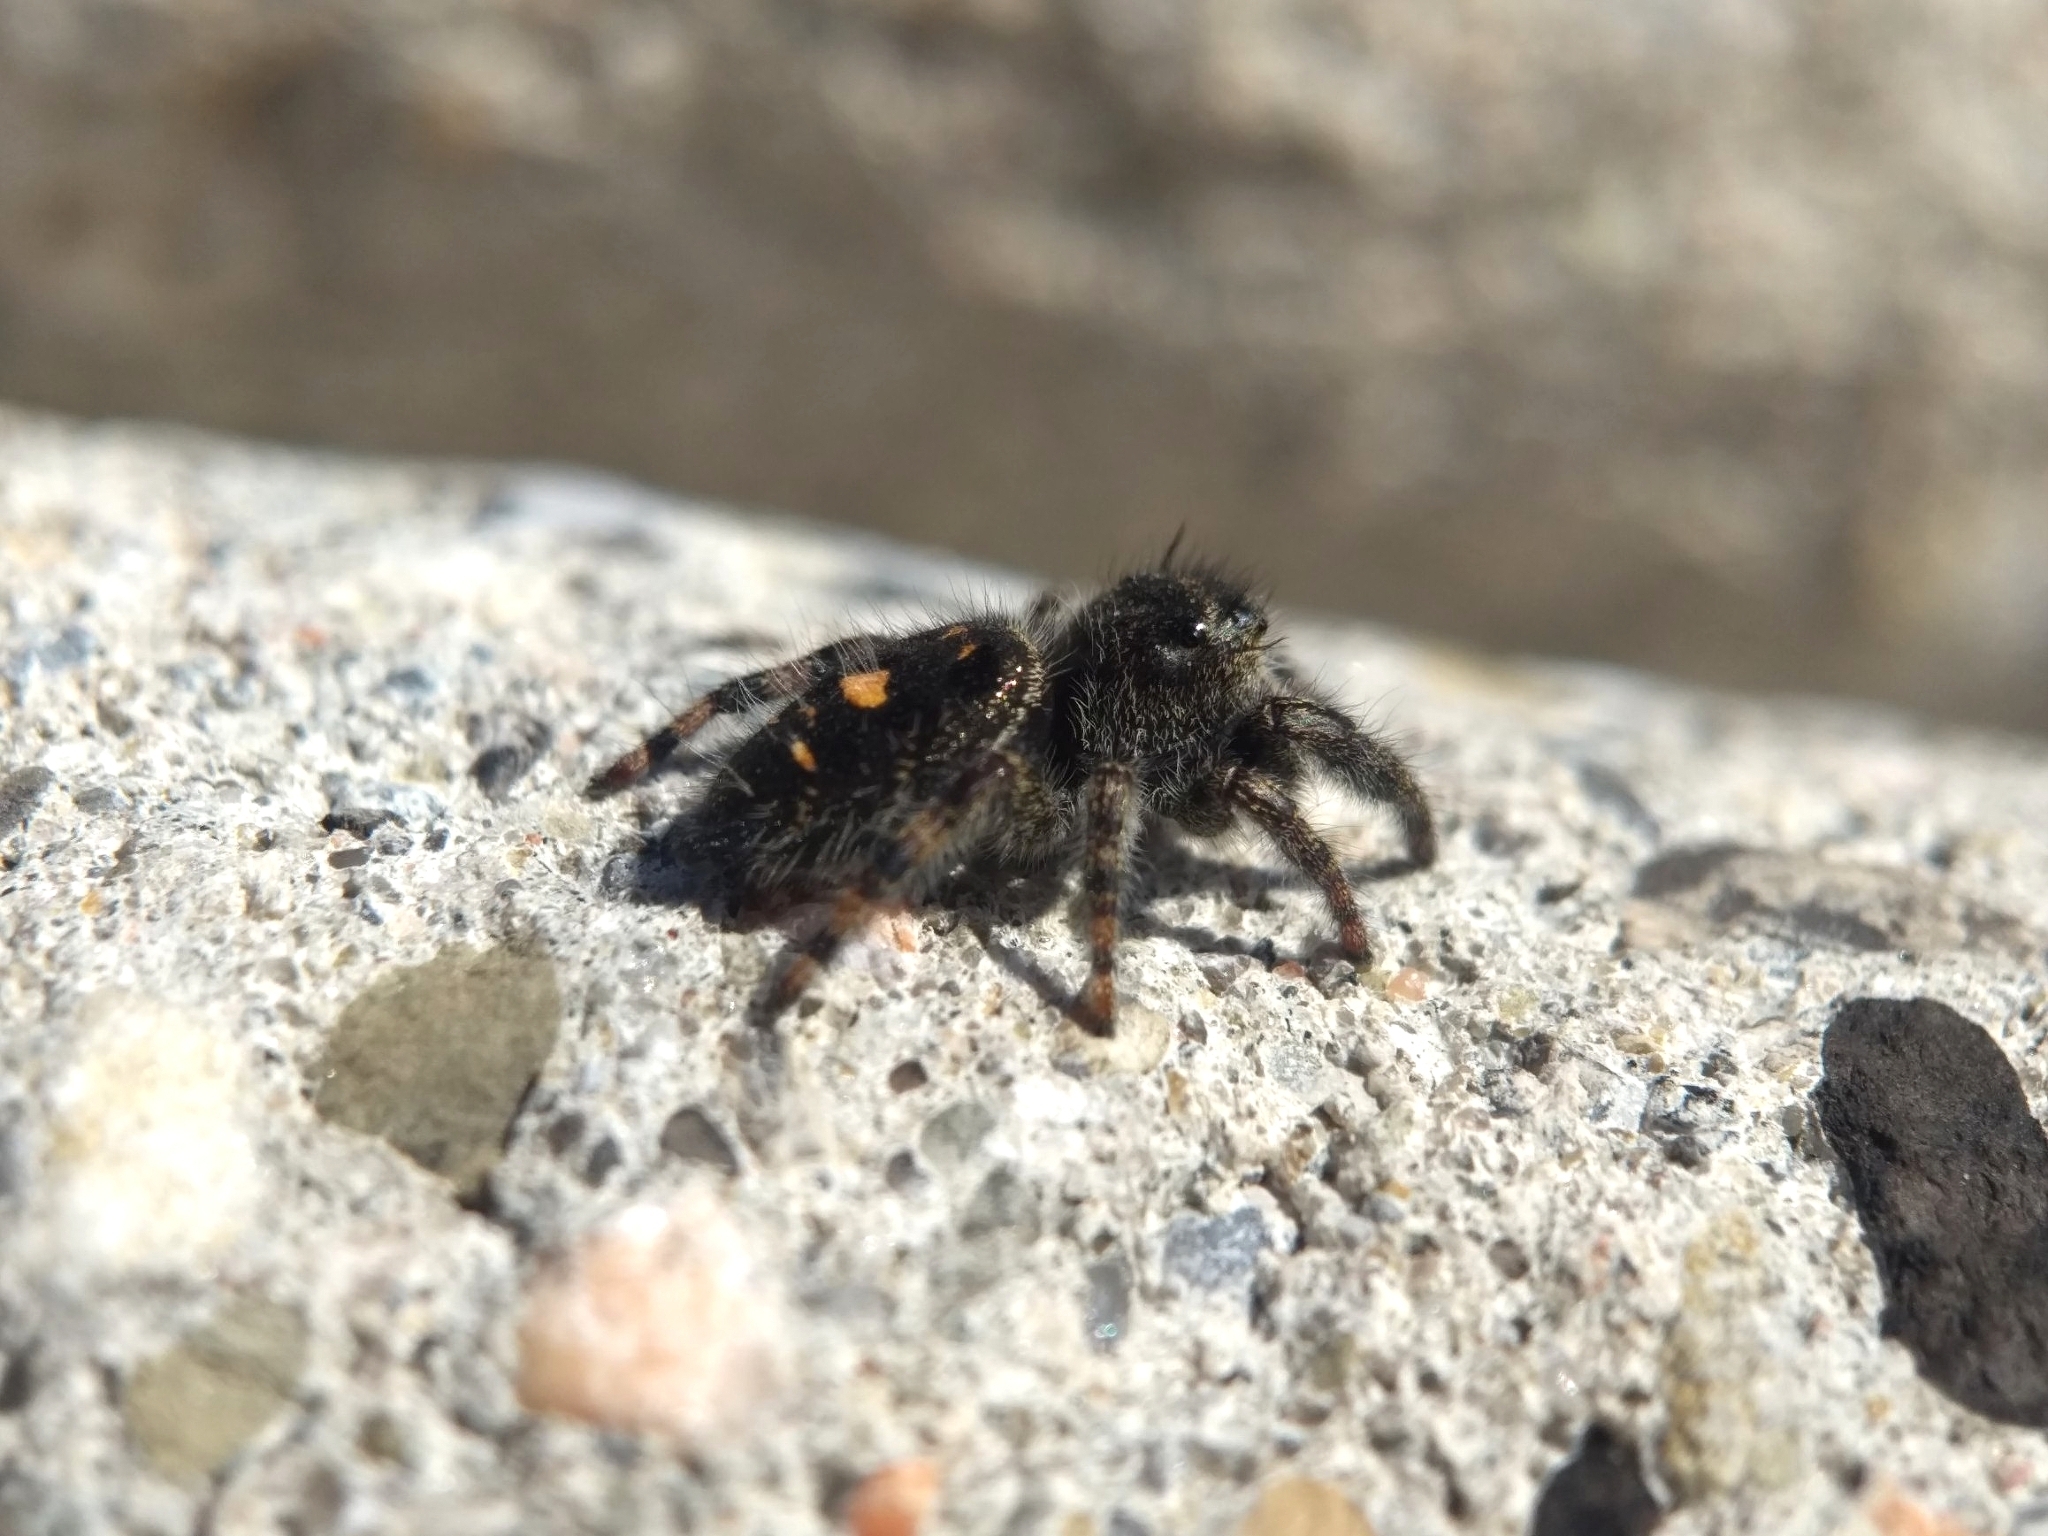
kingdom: Animalia
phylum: Arthropoda
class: Arachnida
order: Araneae
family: Salticidae
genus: Phidippus
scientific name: Phidippus audax
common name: Bold jumper
